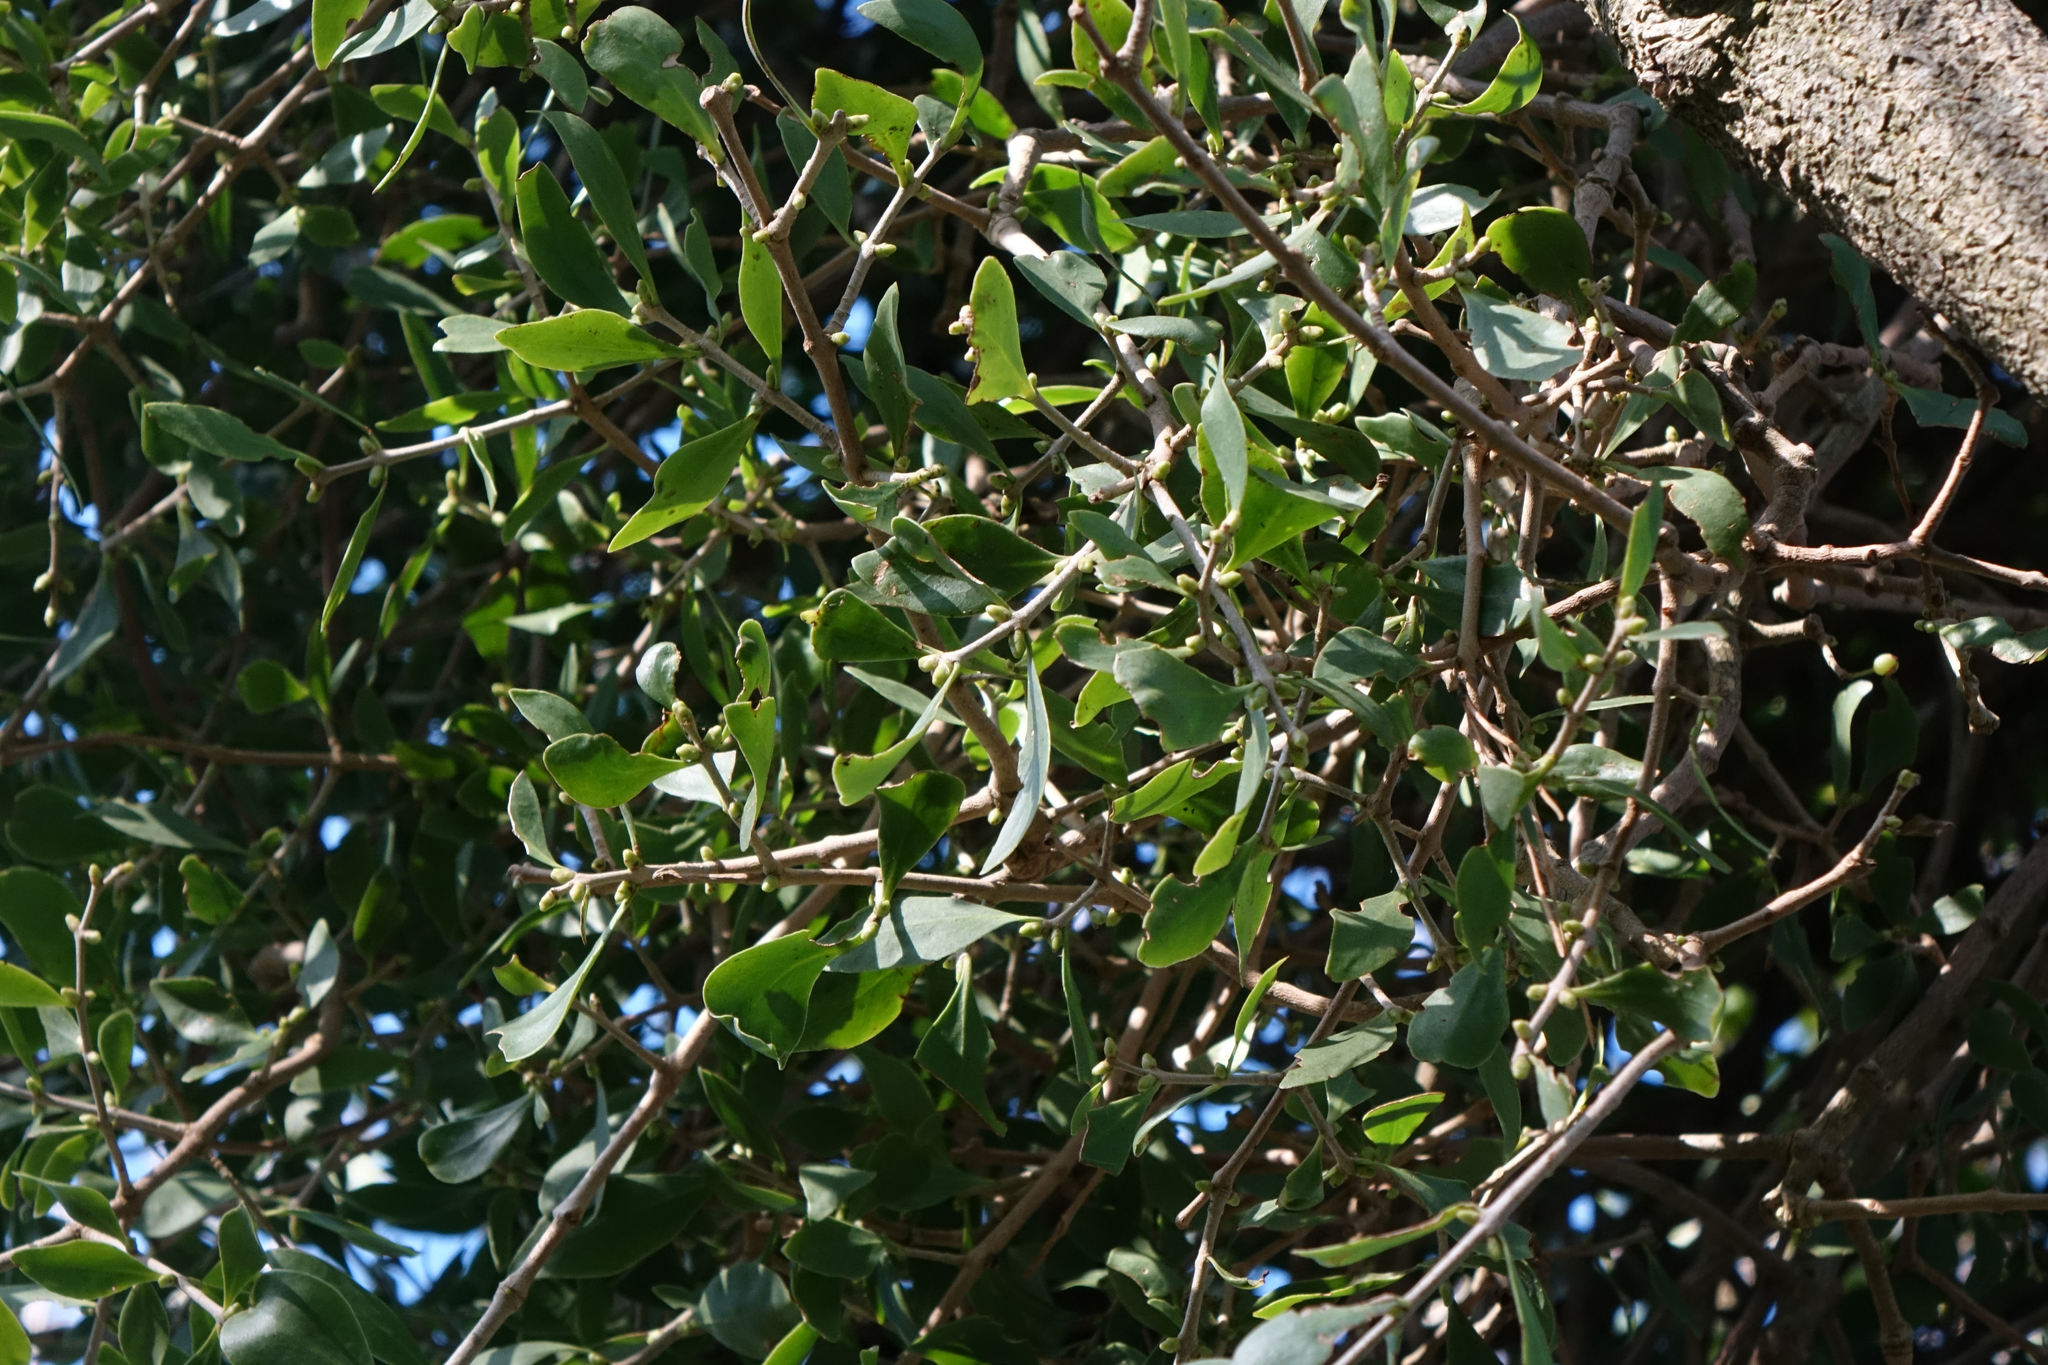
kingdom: Plantae
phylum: Tracheophyta
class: Magnoliopsida
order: Santalales
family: Loranthaceae
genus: Tupeia
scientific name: Tupeia antarctica
